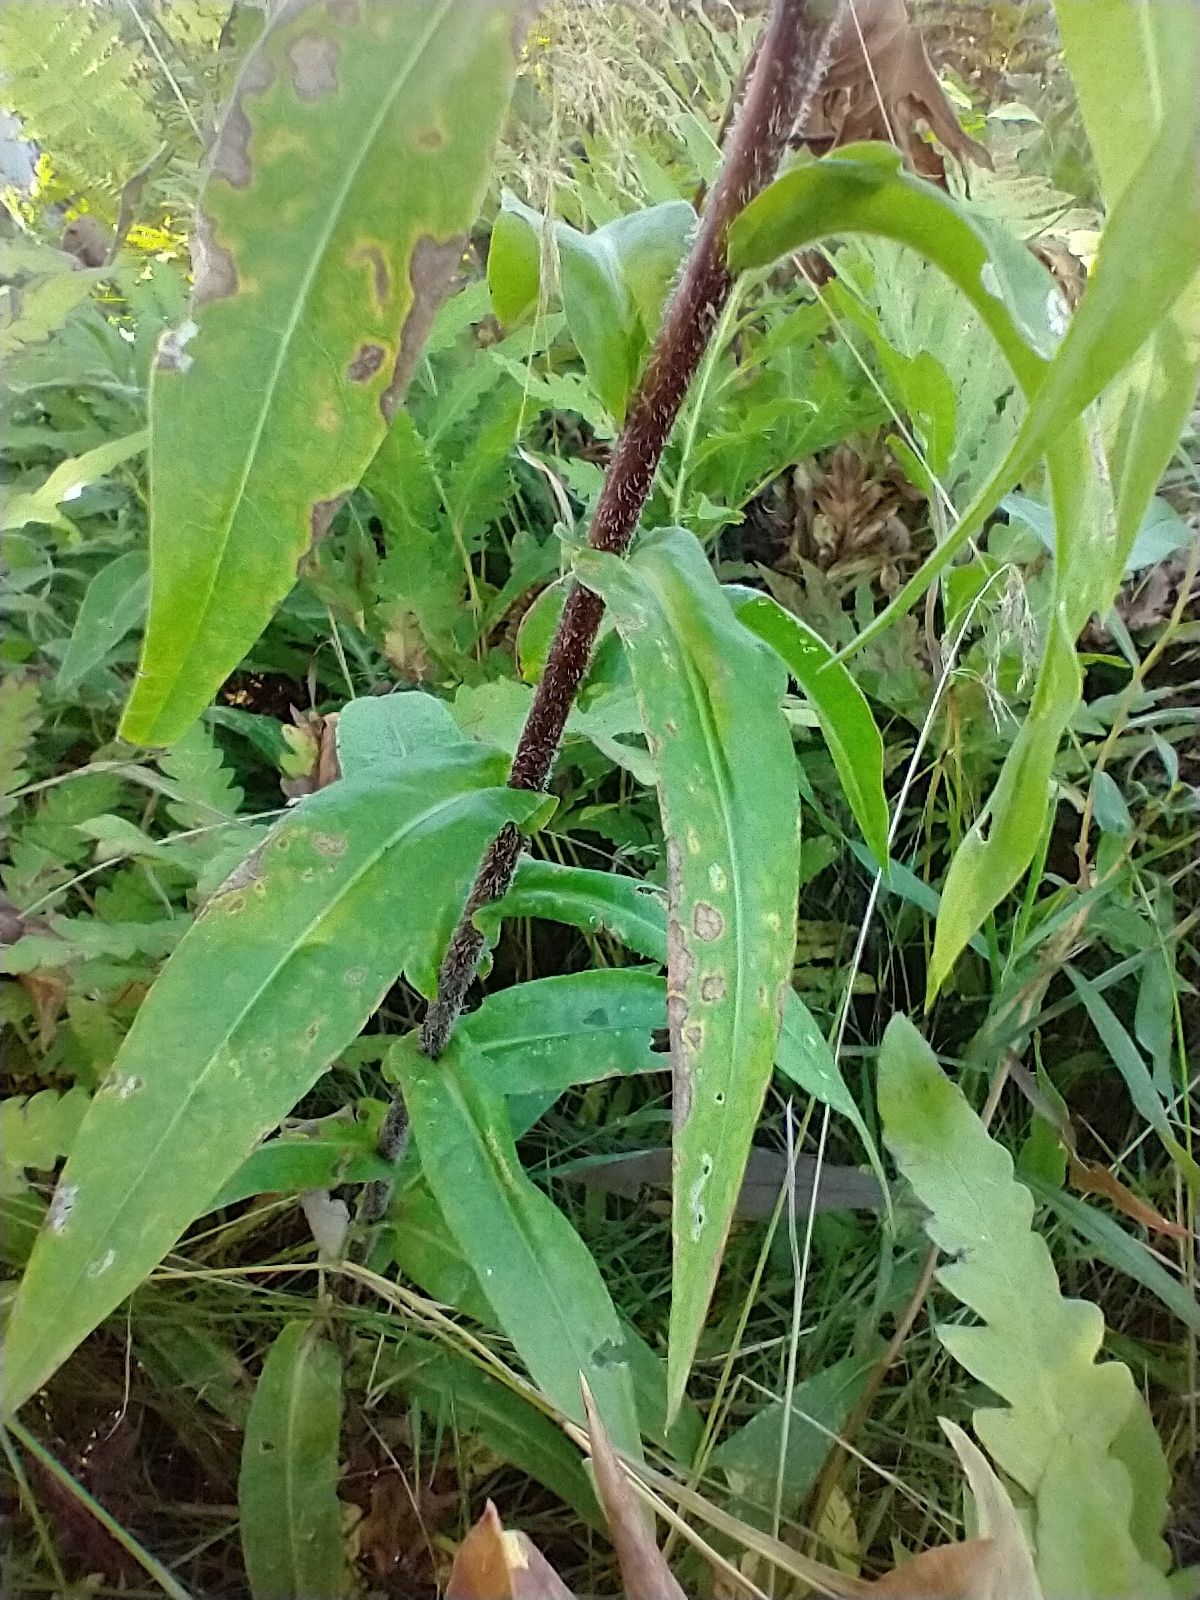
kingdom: Plantae
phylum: Tracheophyta
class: Magnoliopsida
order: Asterales
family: Asteraceae
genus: Symphyotrichum
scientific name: Symphyotrichum puniceum
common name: Bog aster
